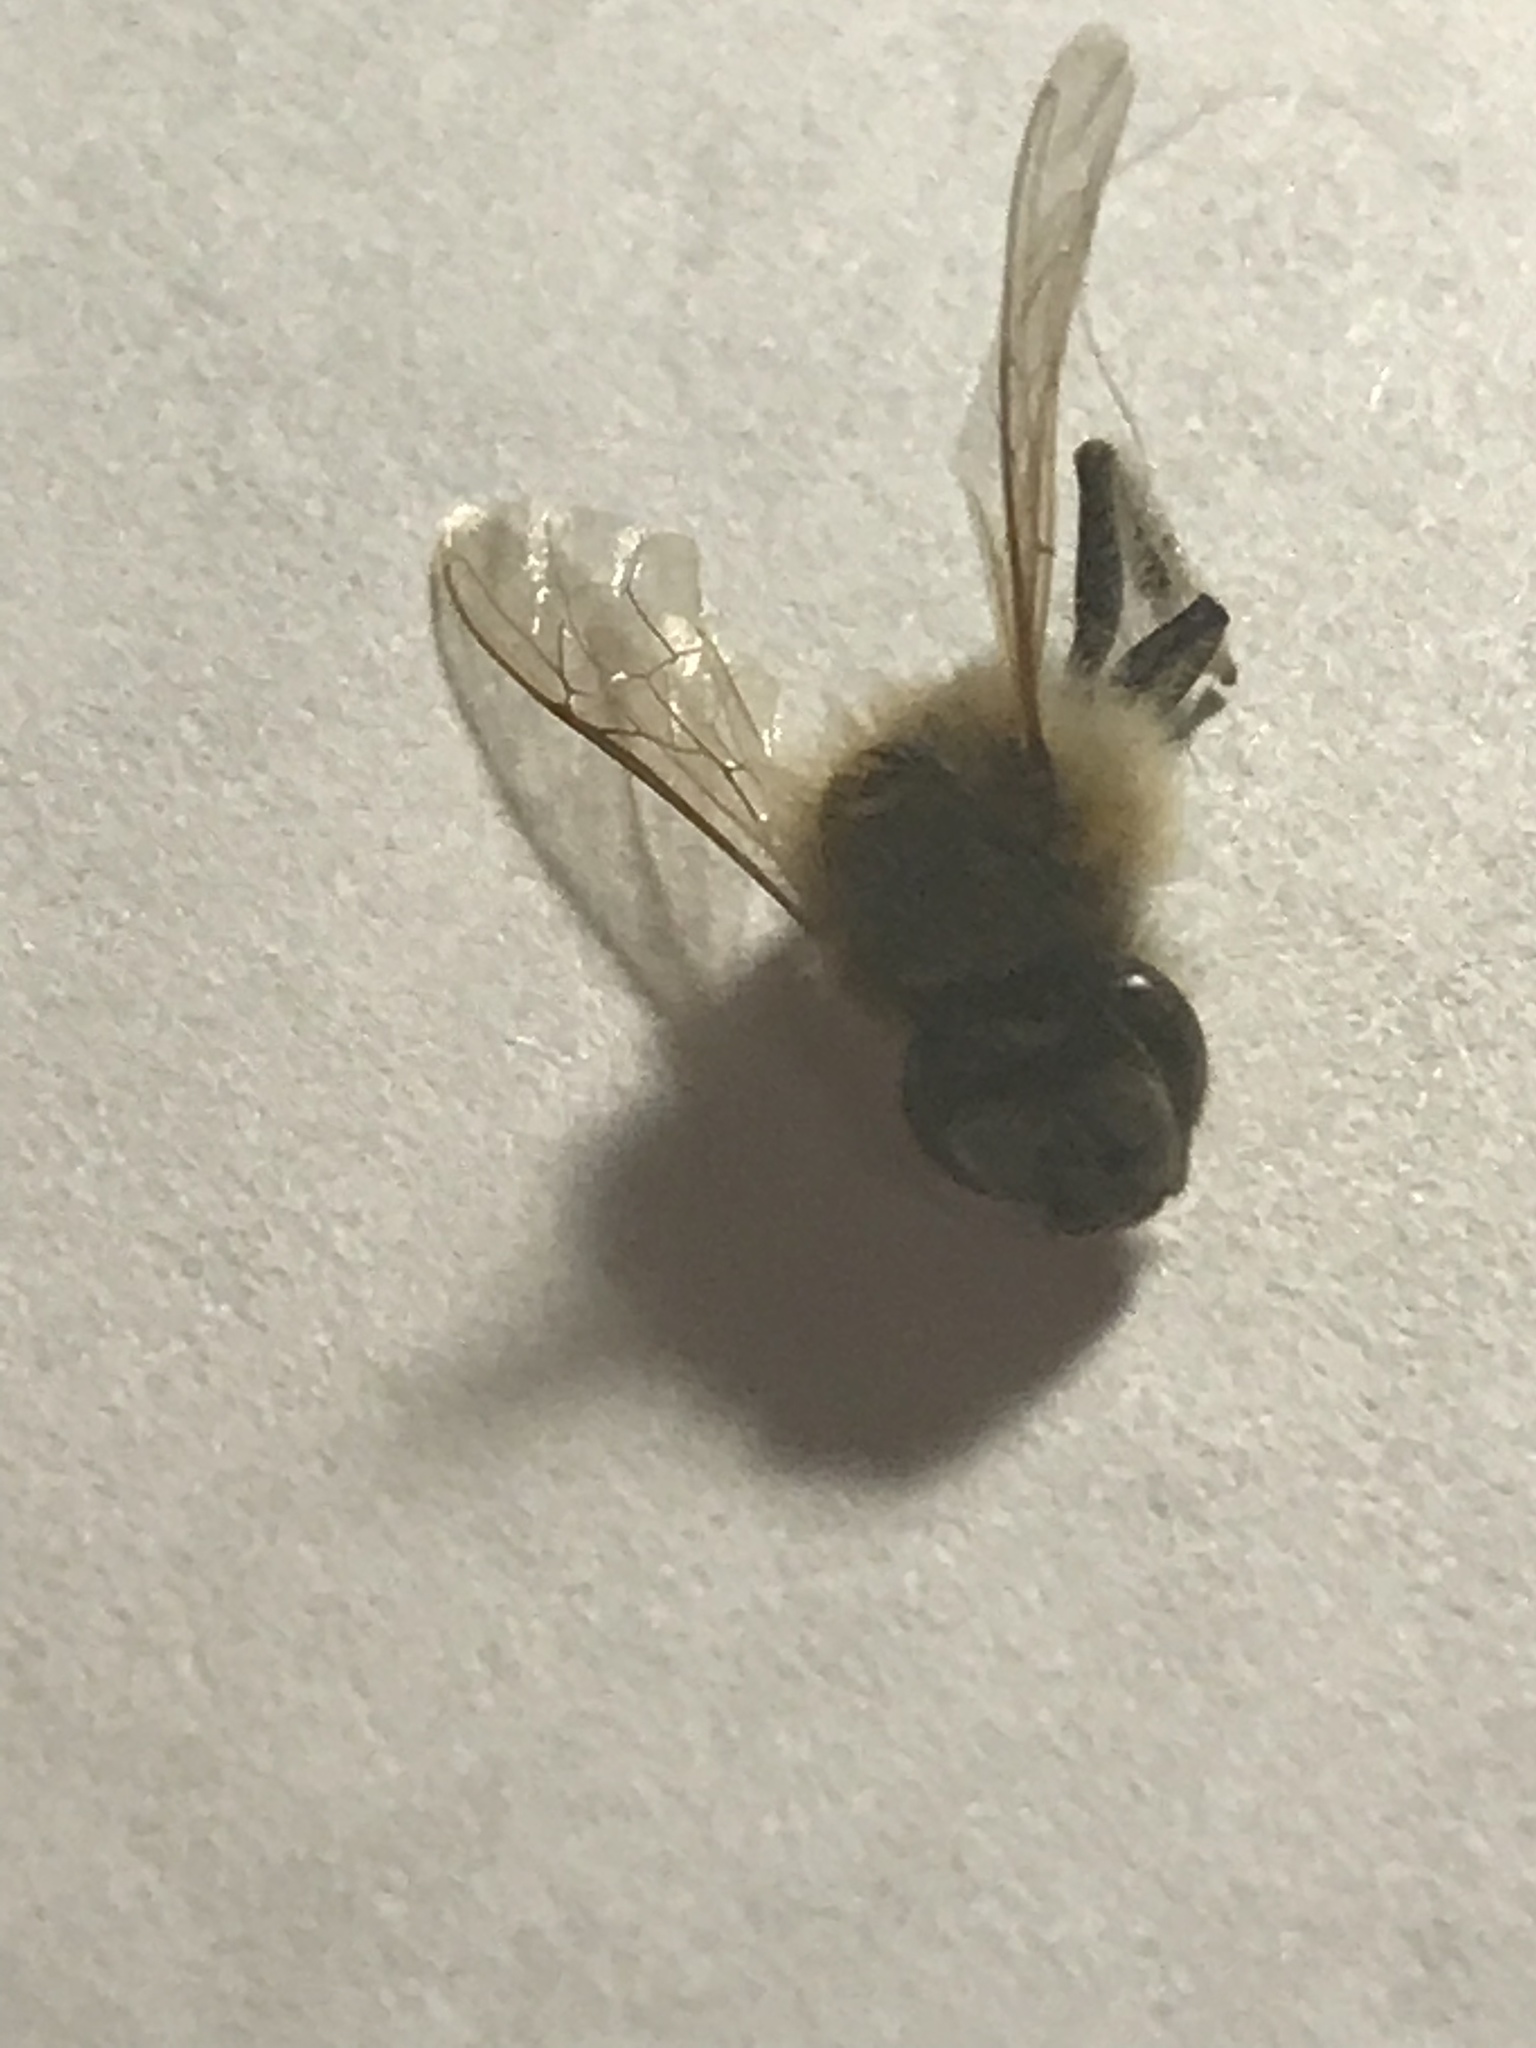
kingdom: Animalia
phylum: Arthropoda
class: Insecta
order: Hymenoptera
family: Apidae
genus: Apis
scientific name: Apis mellifera
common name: Honey bee
